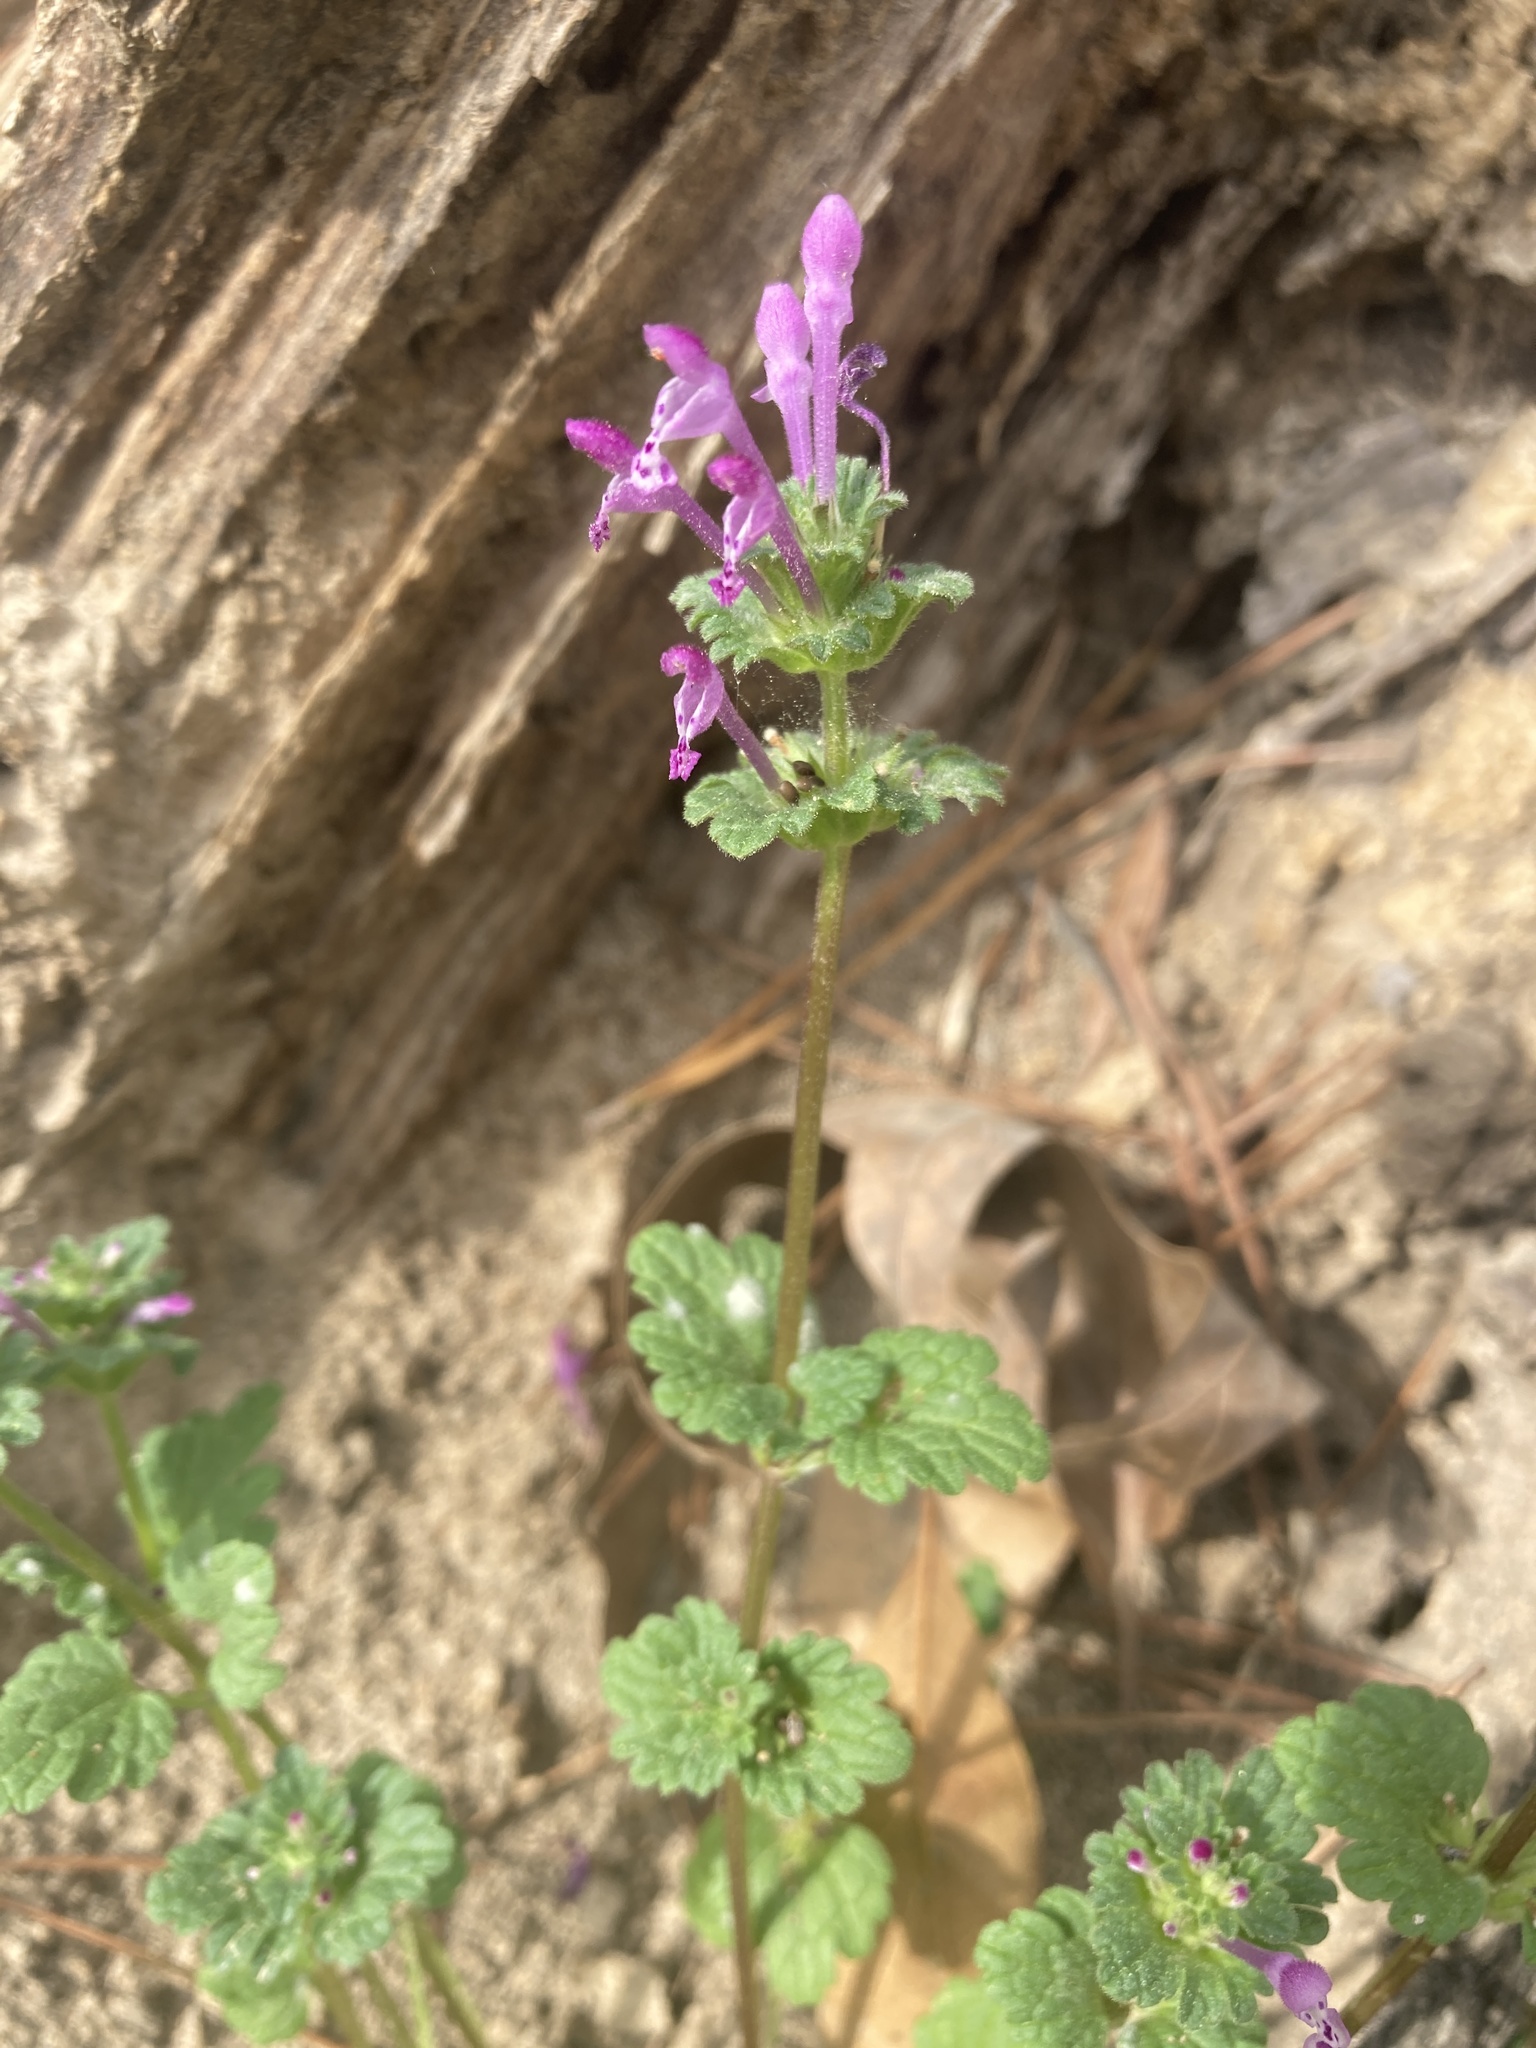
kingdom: Plantae
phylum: Tracheophyta
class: Magnoliopsida
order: Lamiales
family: Lamiaceae
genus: Lamium
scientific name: Lamium amplexicaule
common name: Henbit dead-nettle
